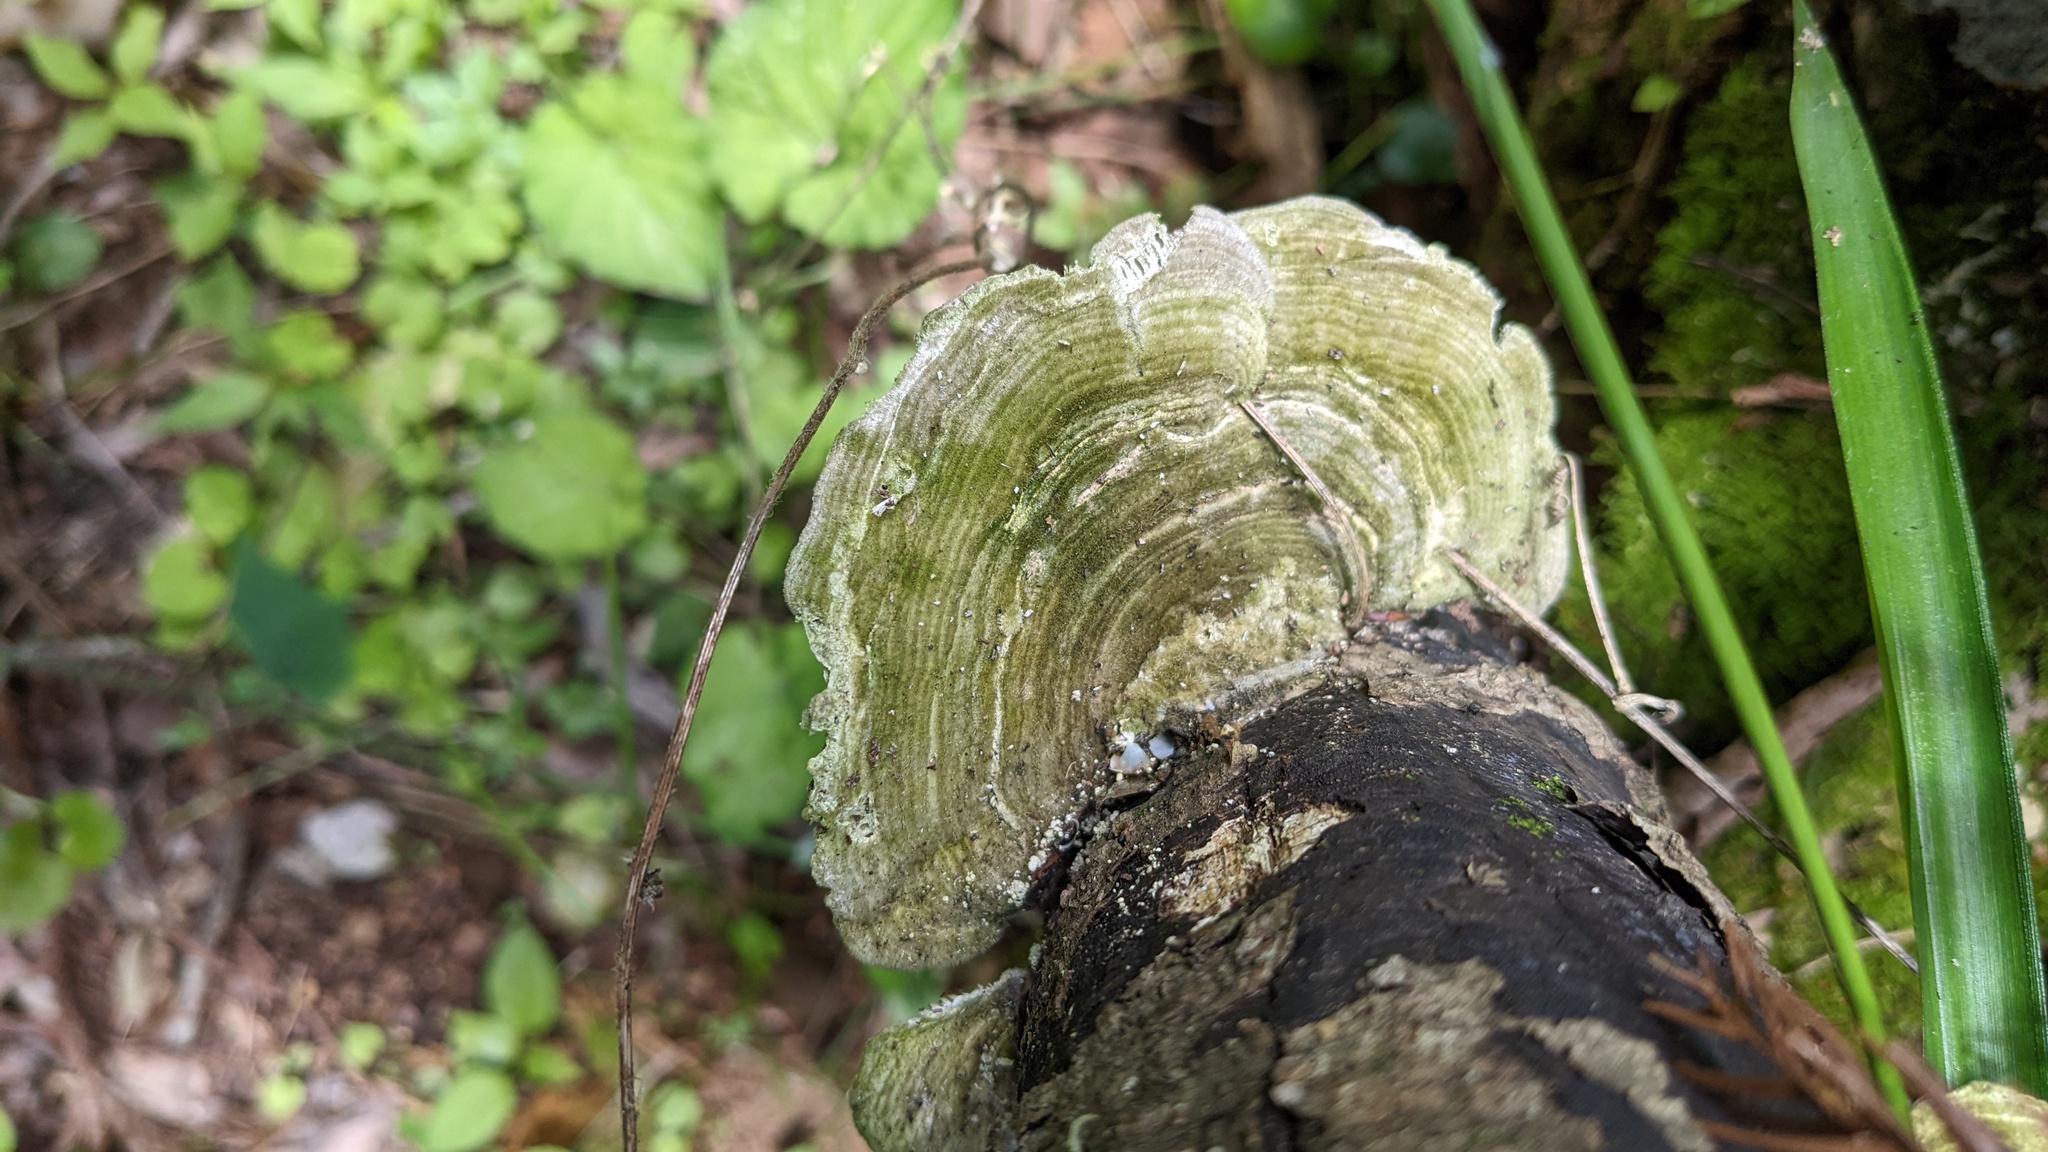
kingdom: Fungi
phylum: Basidiomycota
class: Agaricomycetes
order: Polyporales
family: Polyporaceae
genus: Lenzites
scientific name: Lenzites betulinus
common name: Birch mazegill
